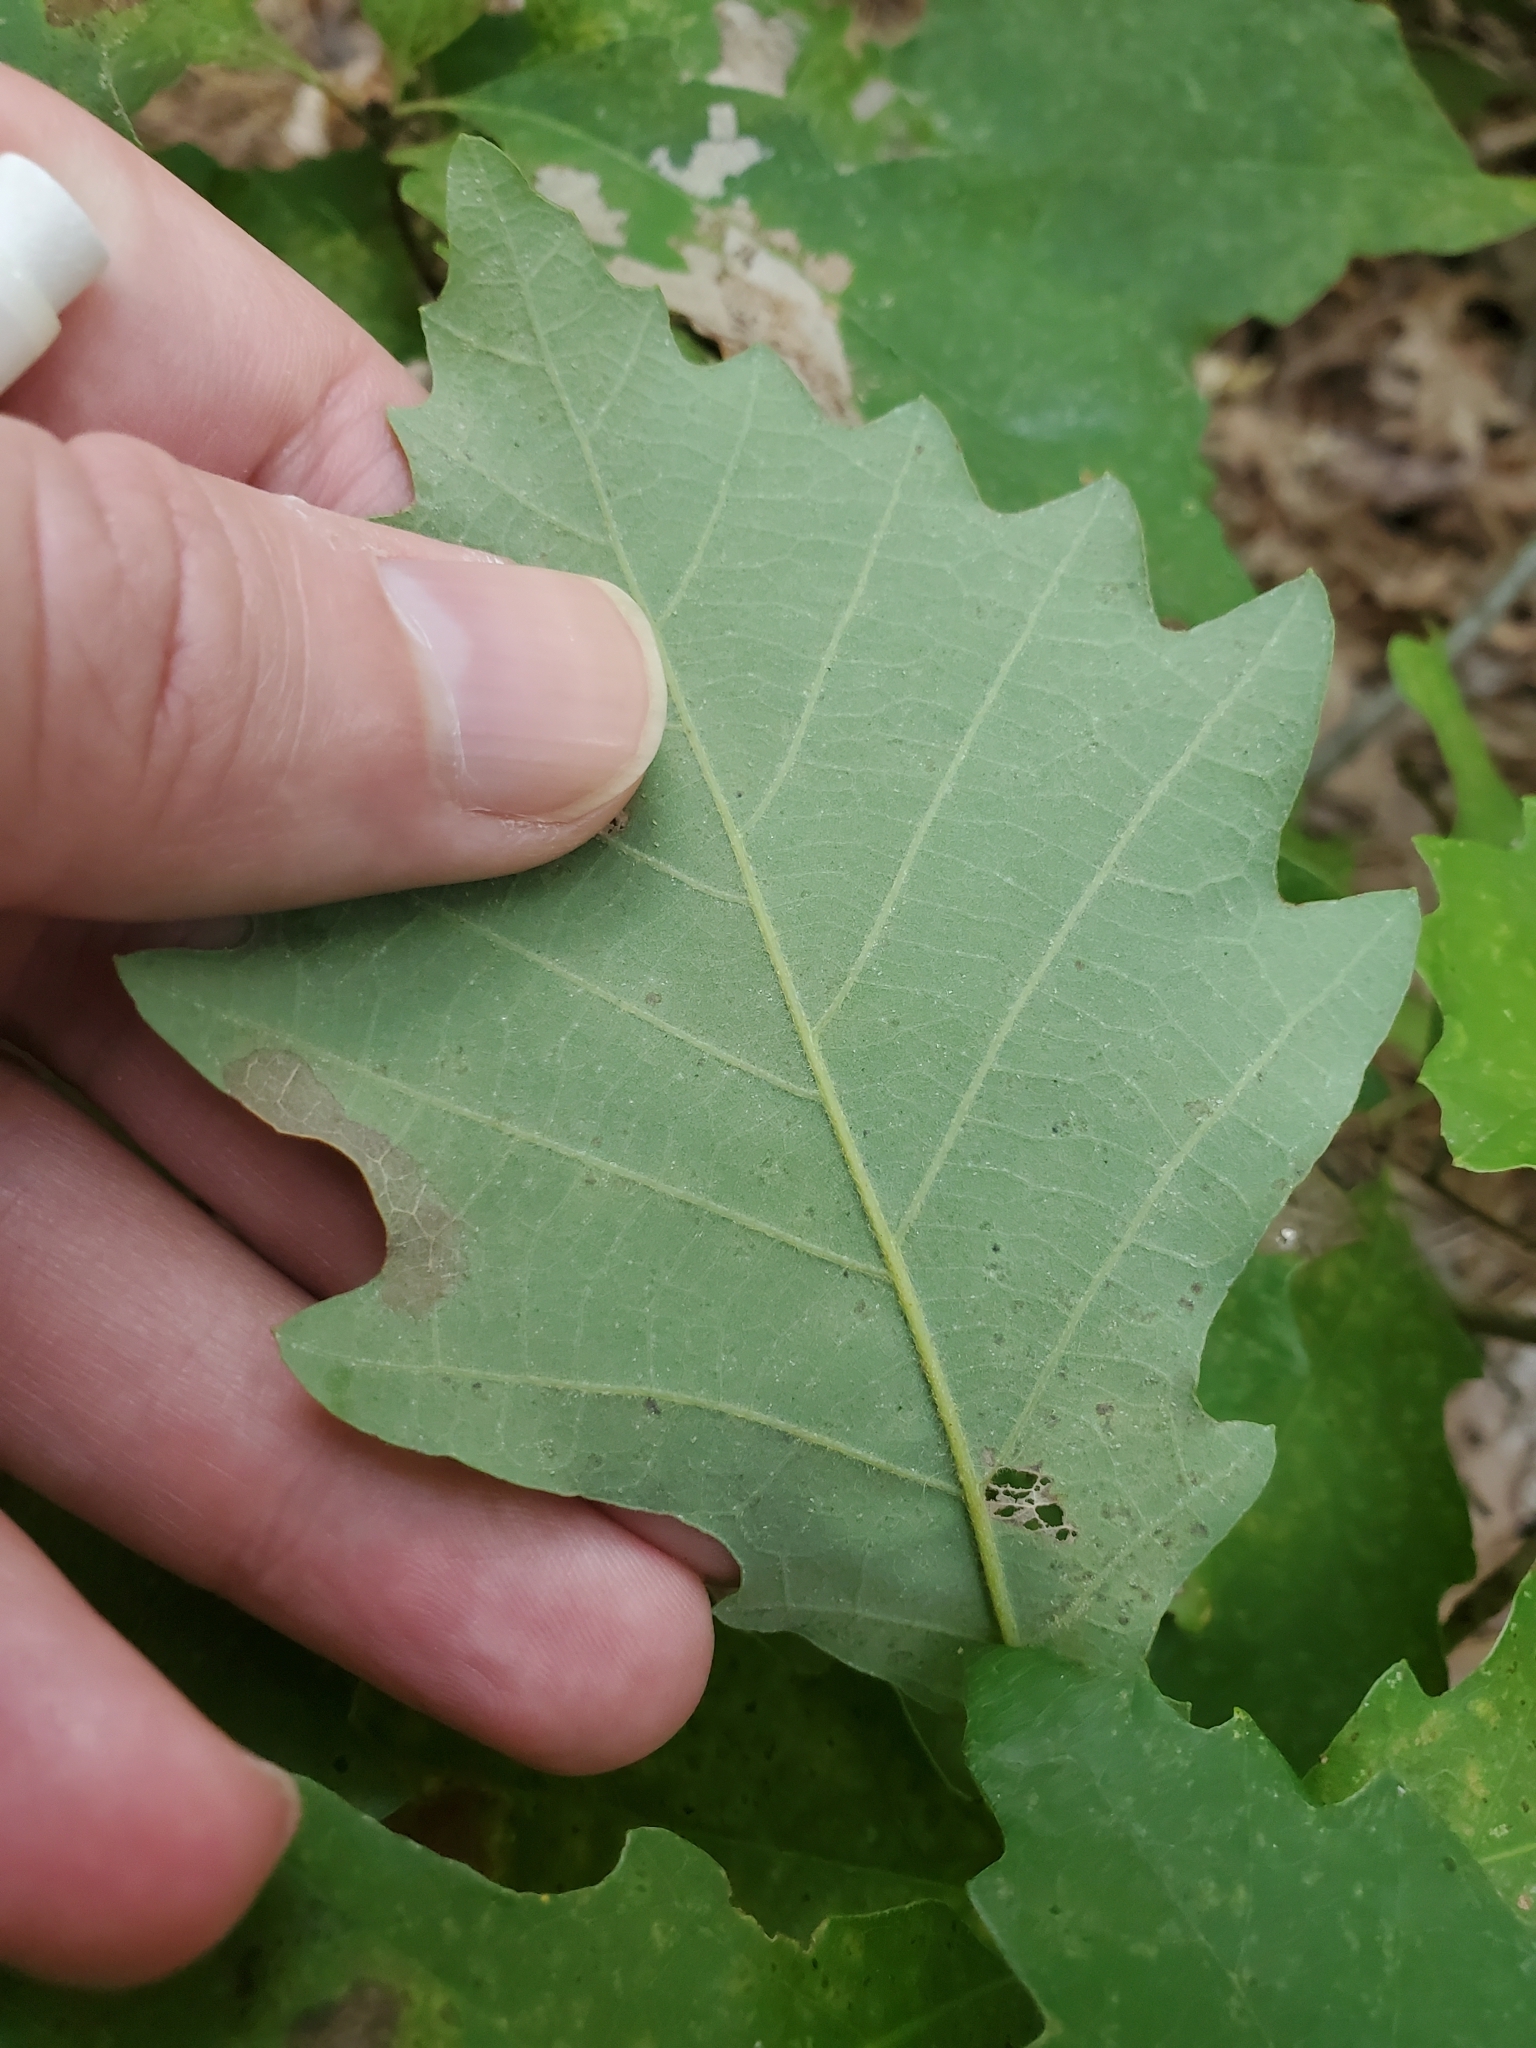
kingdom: Plantae
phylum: Tracheophyta
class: Magnoliopsida
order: Fagales
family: Fagaceae
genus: Quercus
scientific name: Quercus prinoides
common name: Dwarf chinkapin oak
